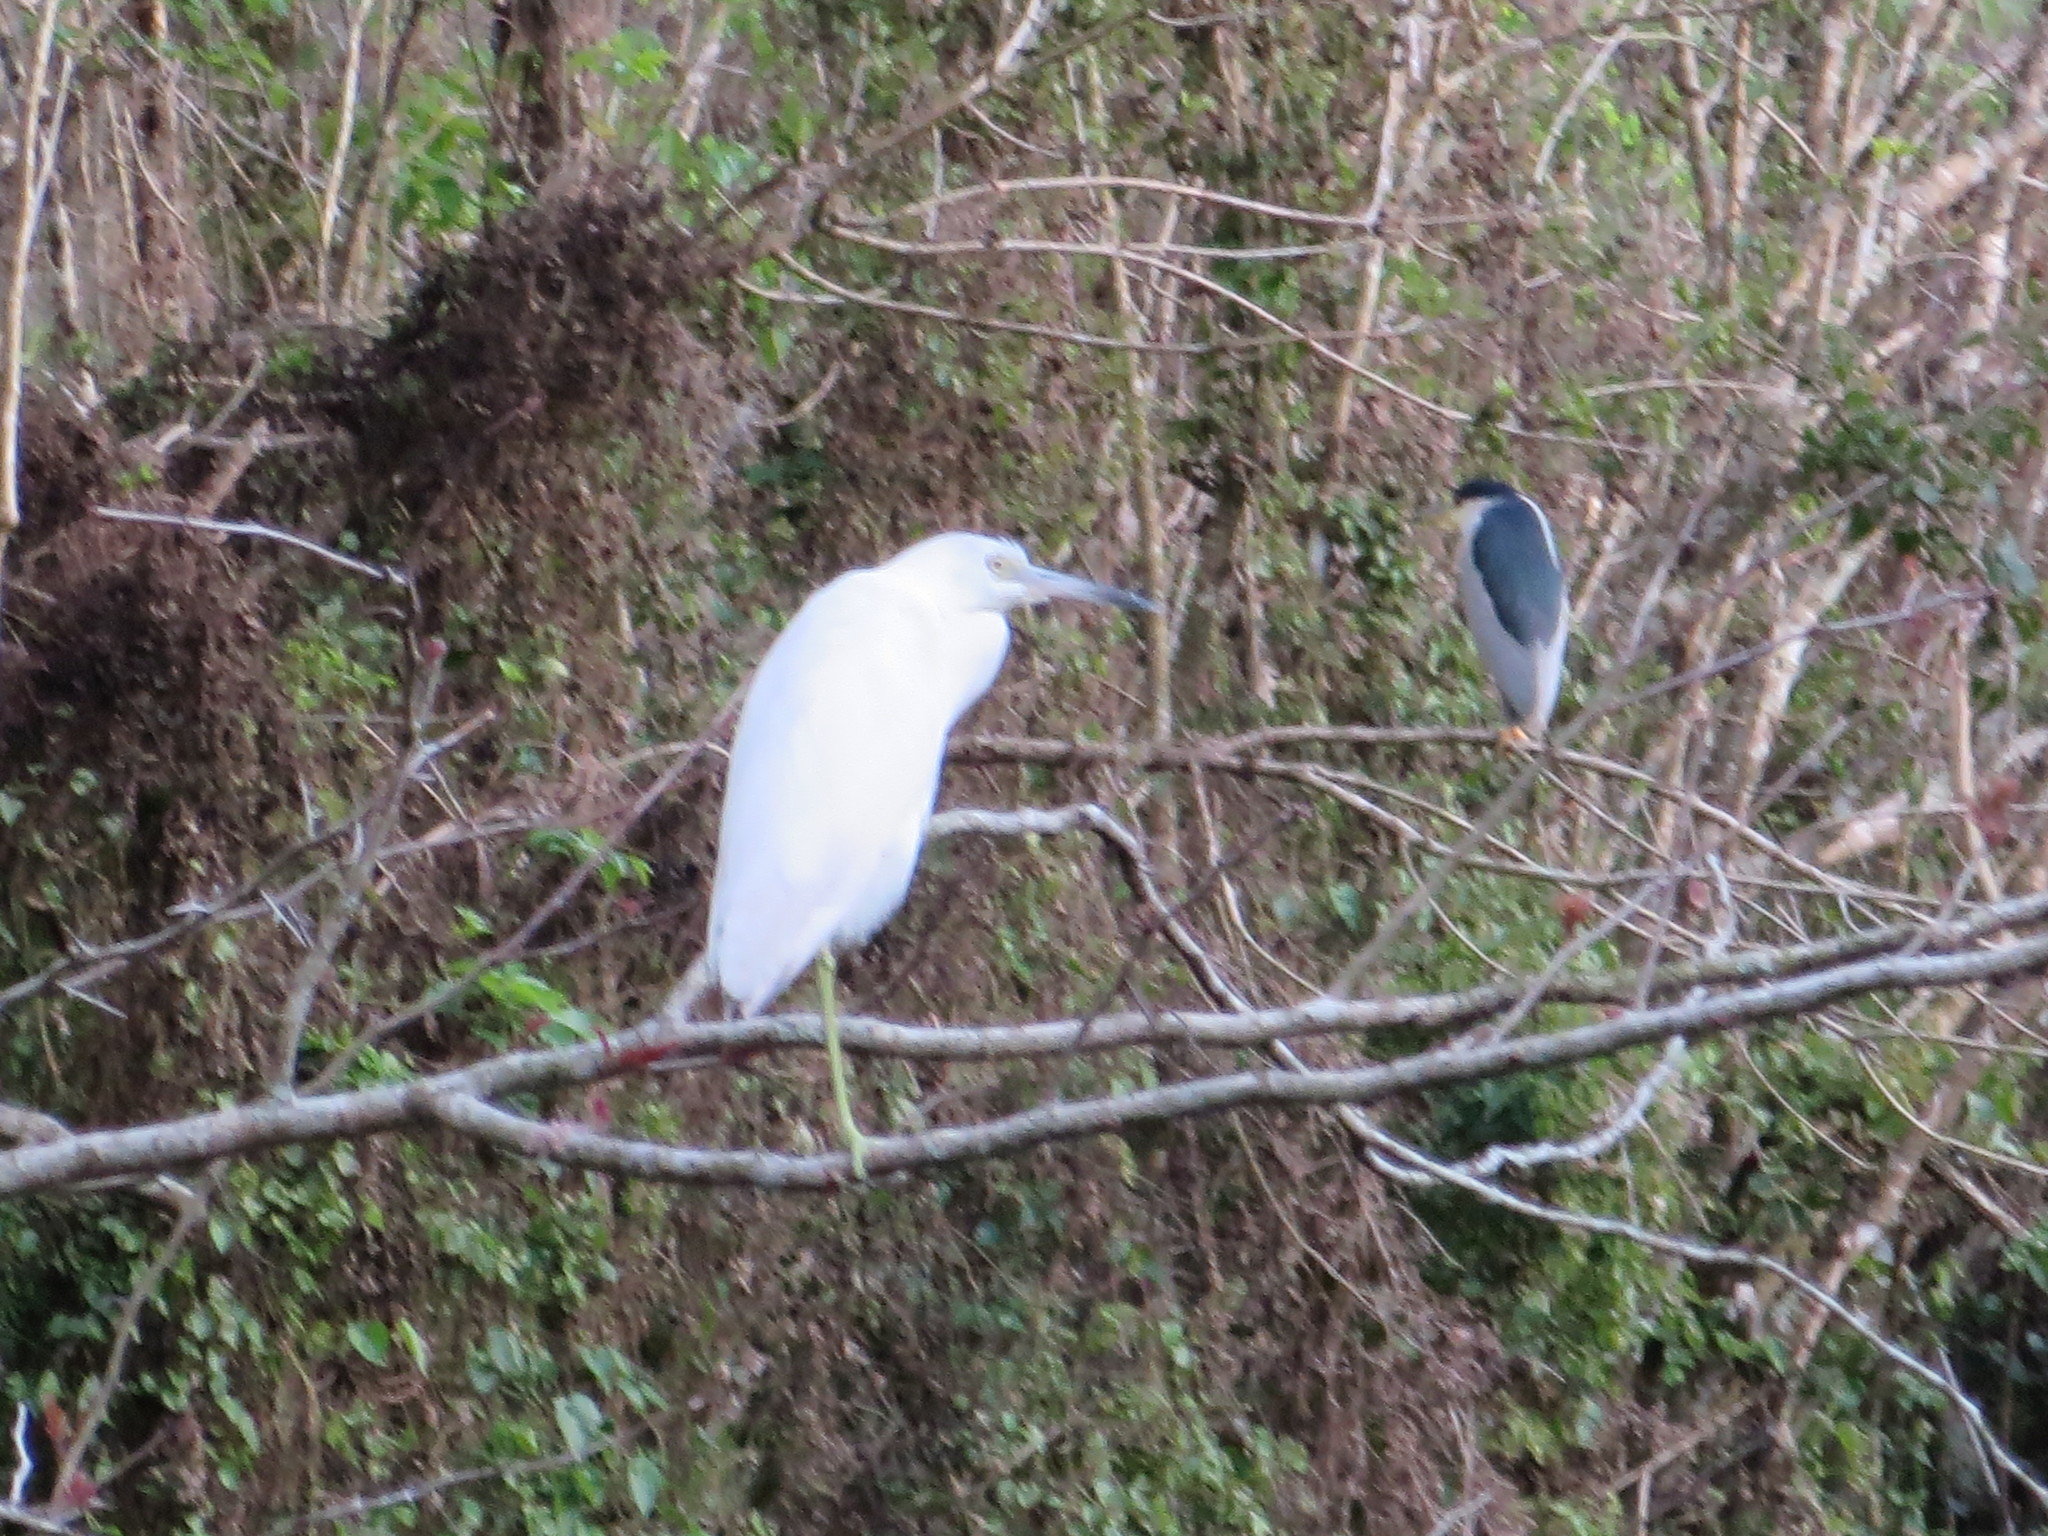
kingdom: Animalia
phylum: Chordata
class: Aves
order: Pelecaniformes
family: Ardeidae
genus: Egretta
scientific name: Egretta caerulea
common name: Little blue heron
